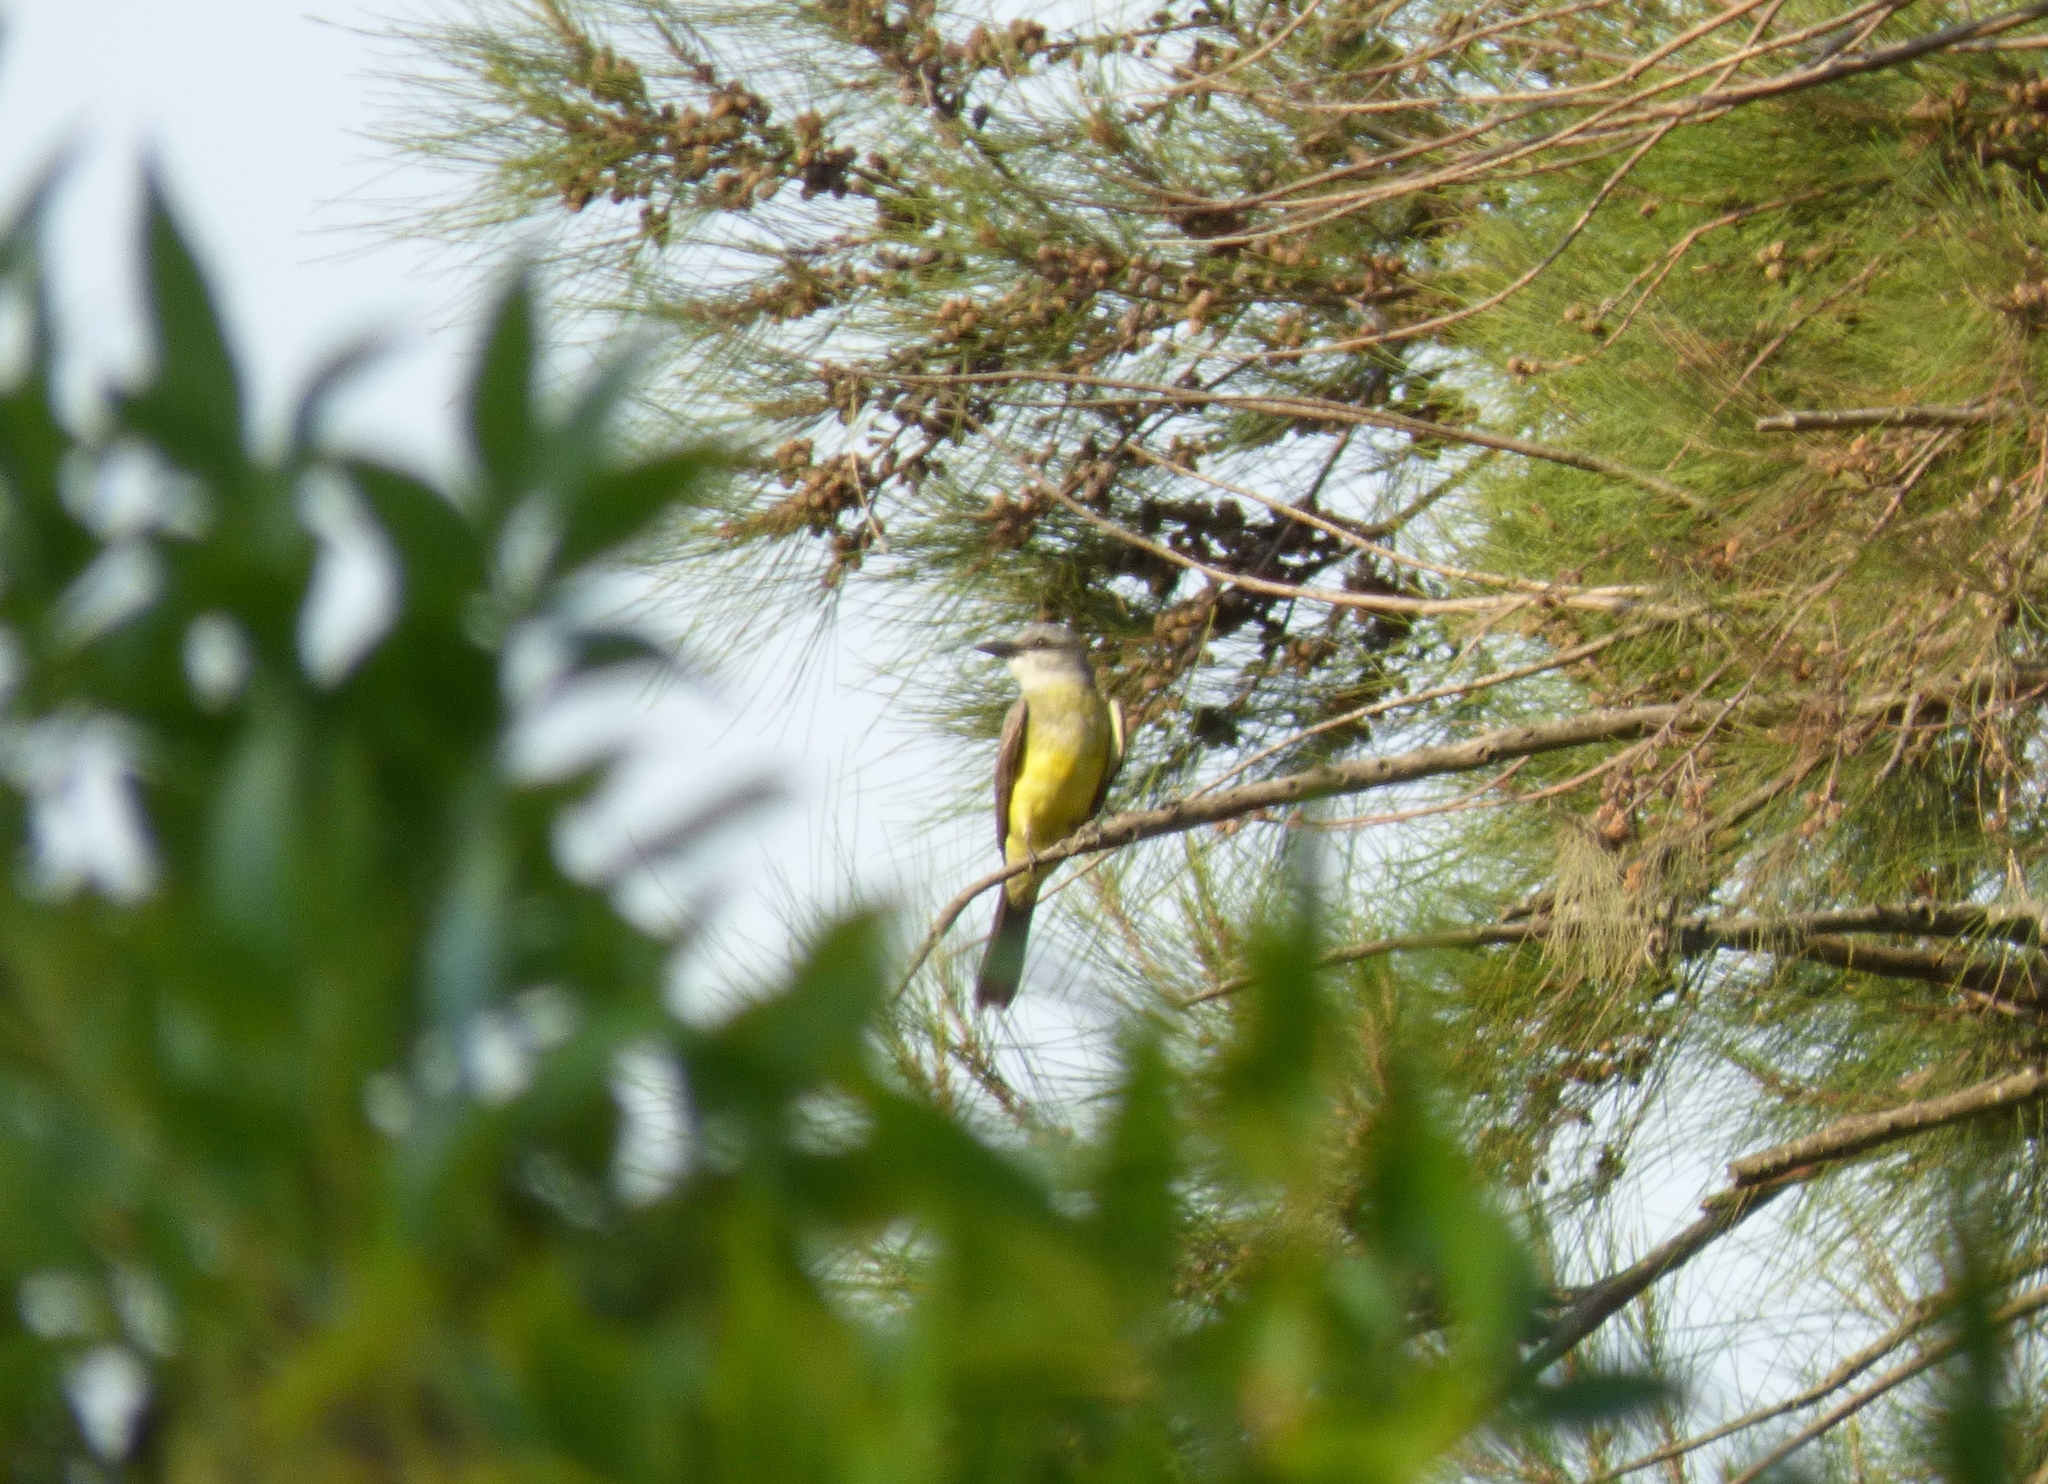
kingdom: Animalia
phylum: Chordata
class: Aves
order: Passeriformes
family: Tyrannidae
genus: Tyrannus
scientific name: Tyrannus melancholicus
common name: Tropical kingbird
